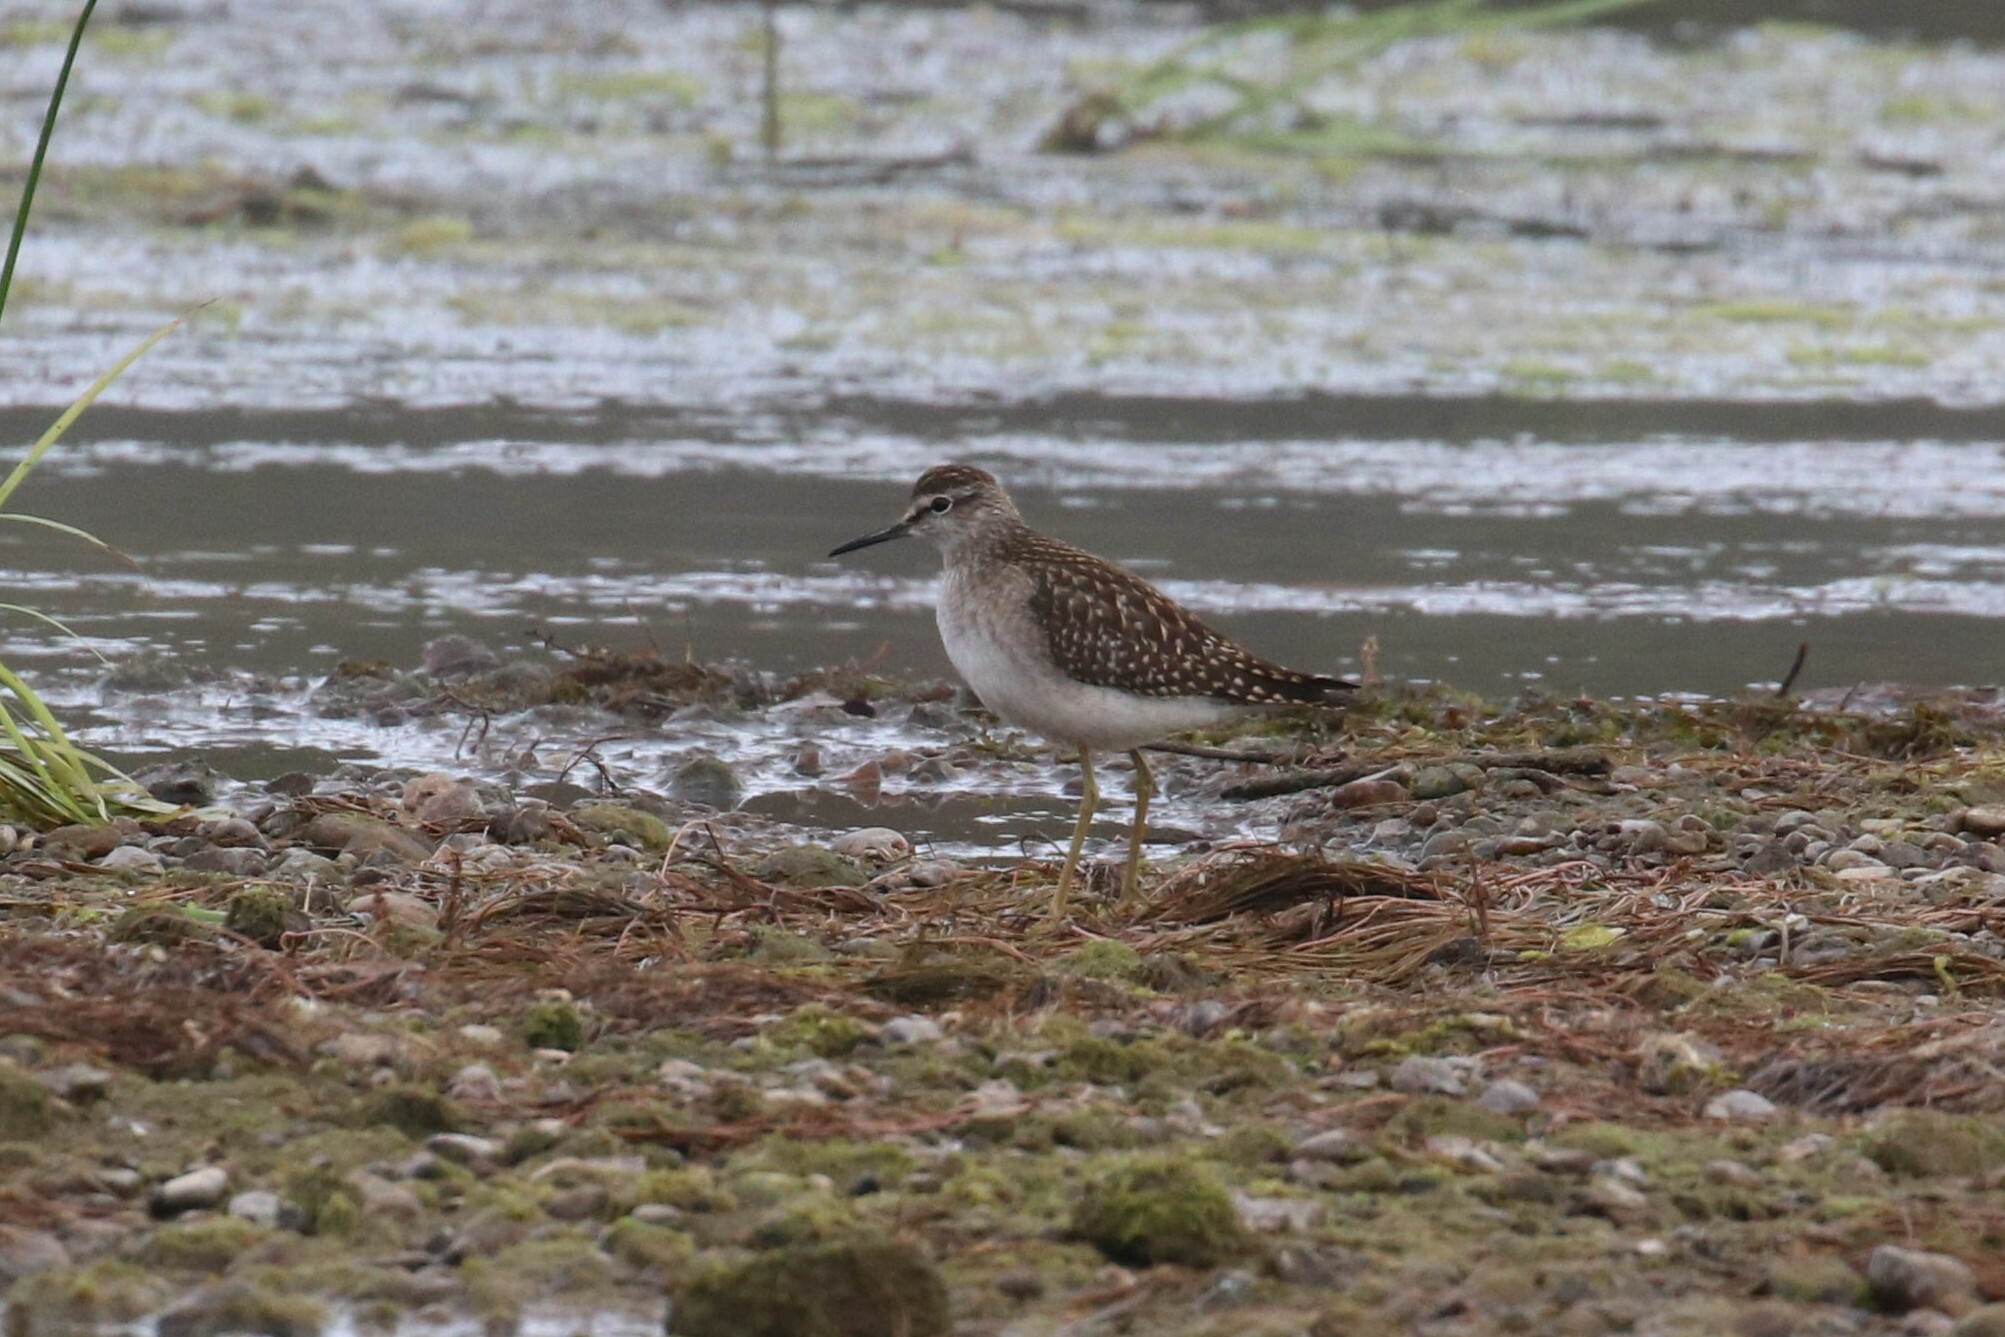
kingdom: Animalia
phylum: Chordata
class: Aves
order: Charadriiformes
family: Scolopacidae
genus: Tringa
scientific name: Tringa glareola
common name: Wood sandpiper
